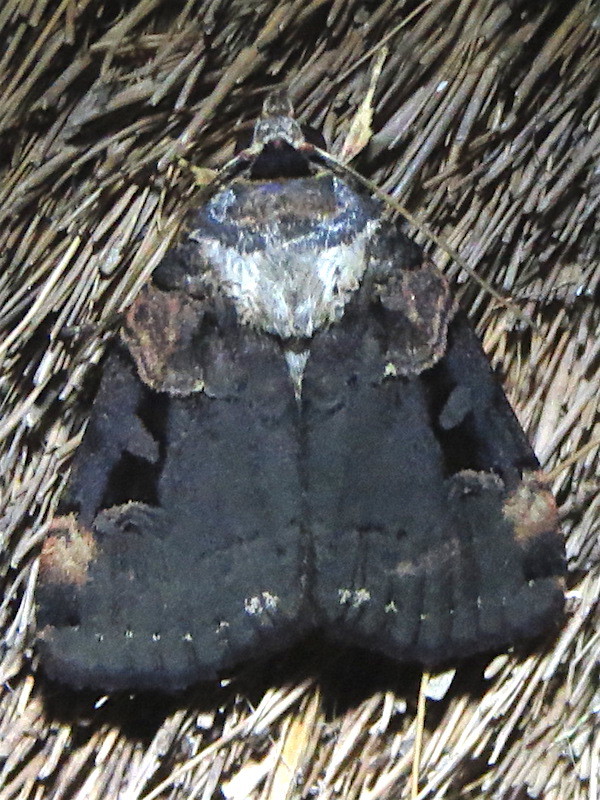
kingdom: Animalia
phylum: Arthropoda
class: Insecta
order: Lepidoptera
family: Noctuidae
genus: Pseudohermonassa
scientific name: Pseudohermonassa bicarnea
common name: Pink spotted dart
